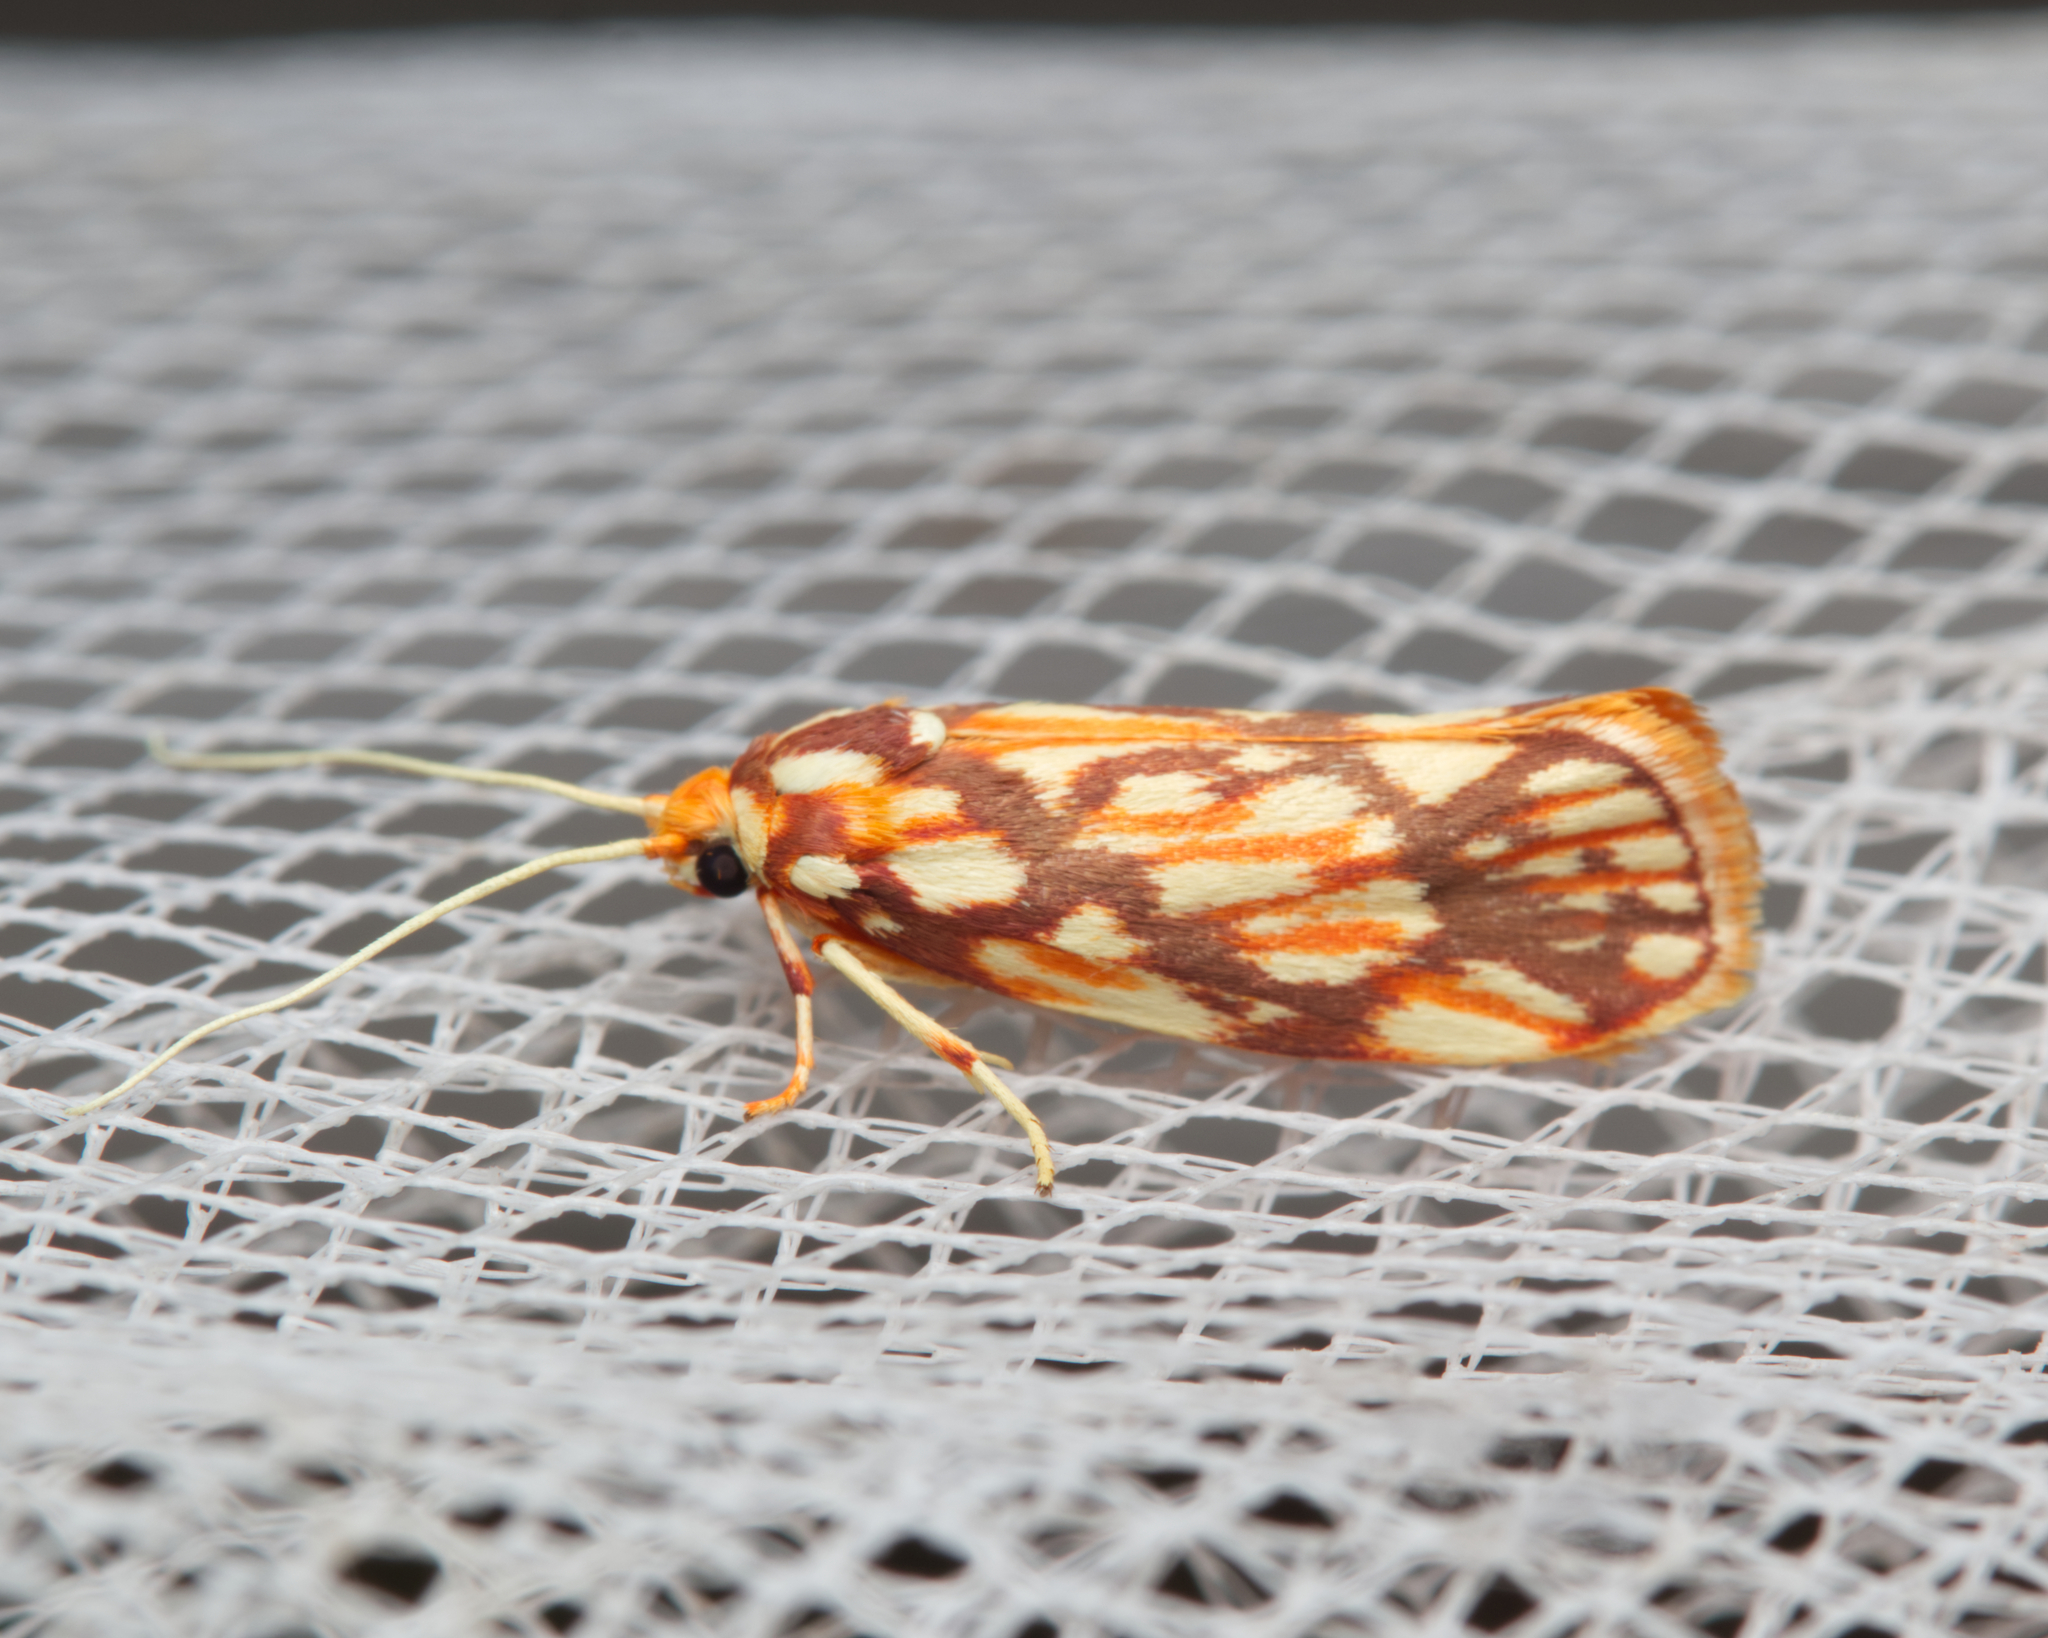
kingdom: Animalia
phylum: Arthropoda
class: Insecta
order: Lepidoptera
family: Lacturidae
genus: Lactura
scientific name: Lactura panopsia
